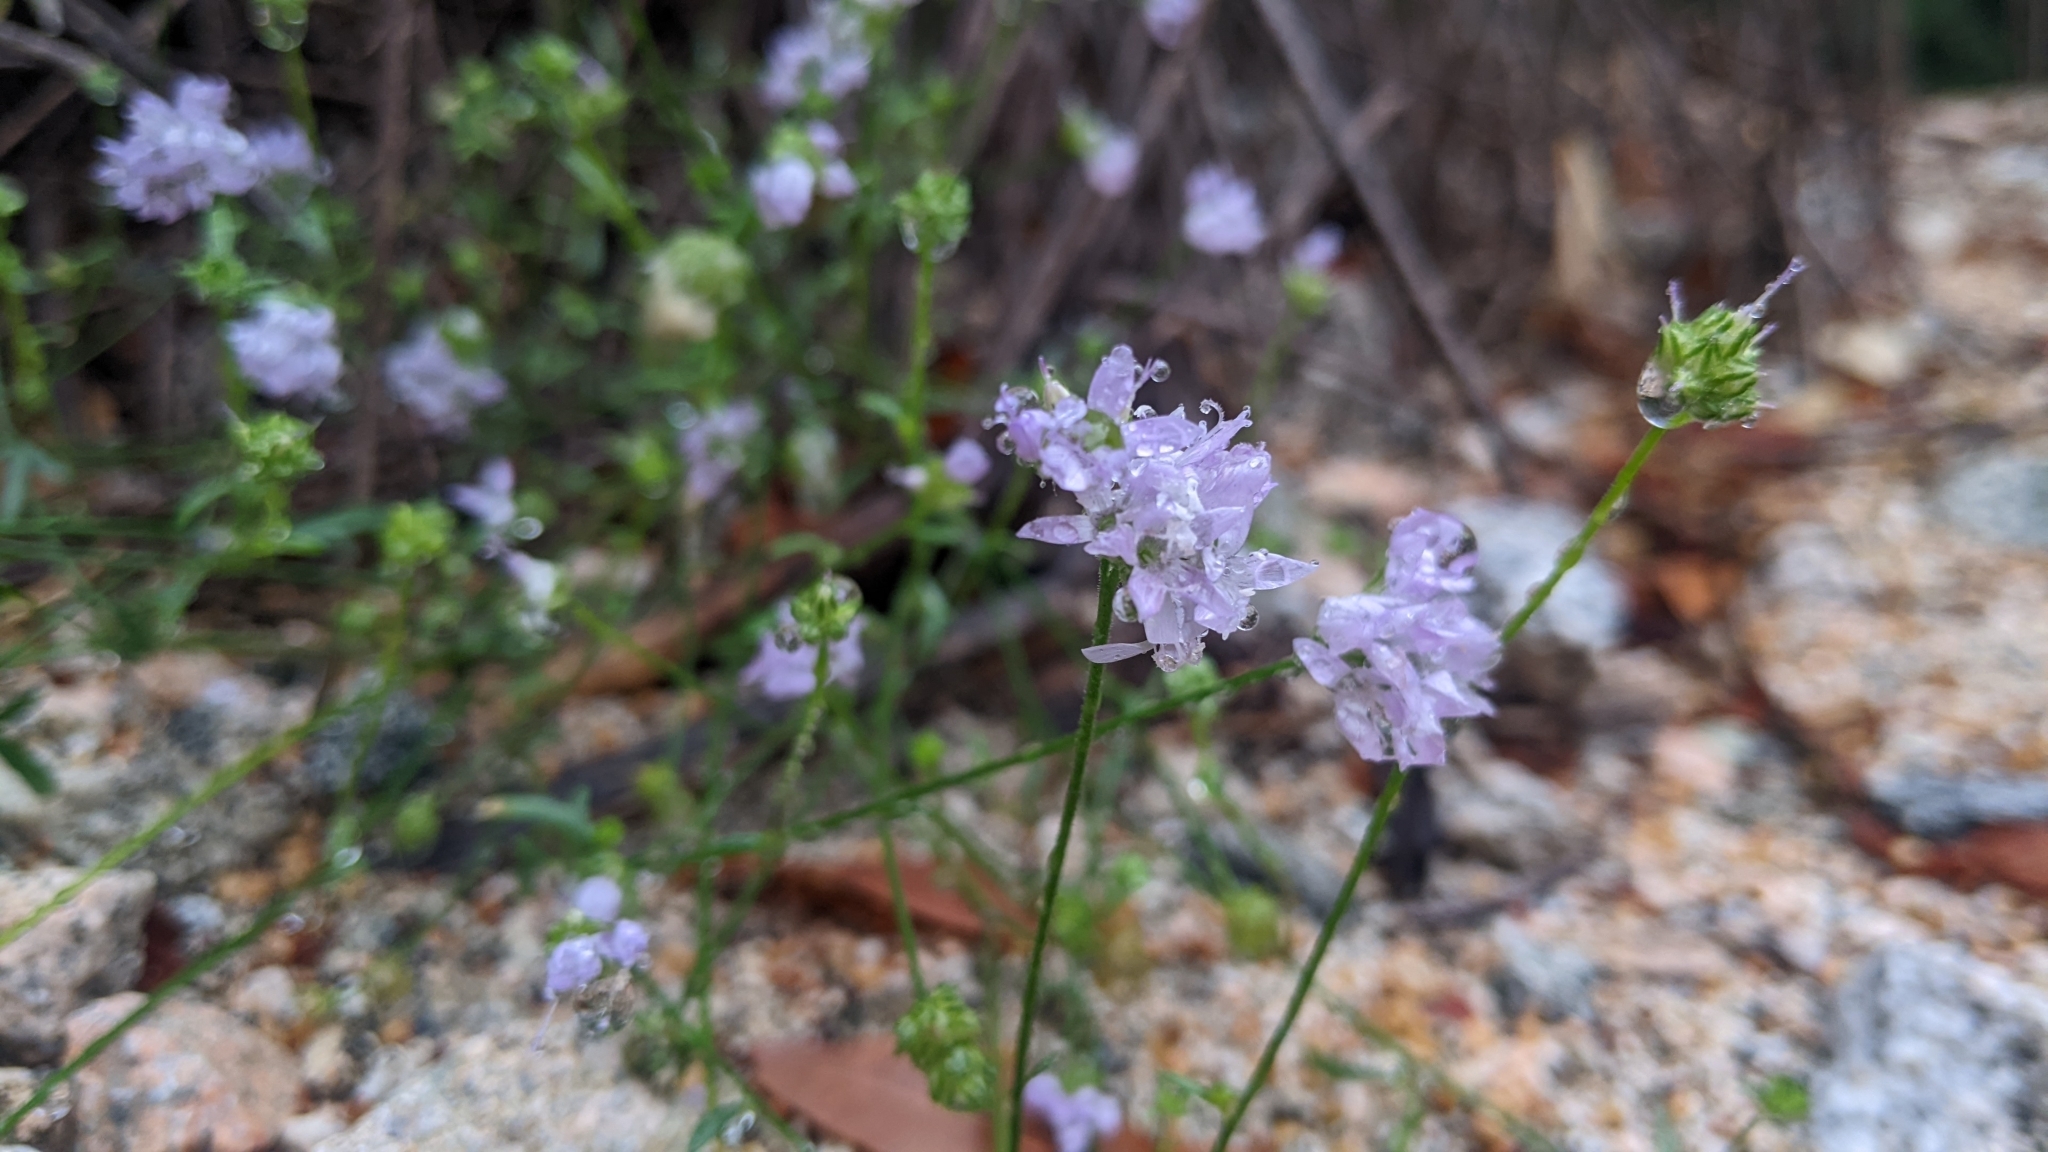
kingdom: Plantae
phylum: Tracheophyta
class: Magnoliopsida
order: Ericales
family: Polemoniaceae
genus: Gilia
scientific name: Gilia capitata
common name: Bluehead gilia
